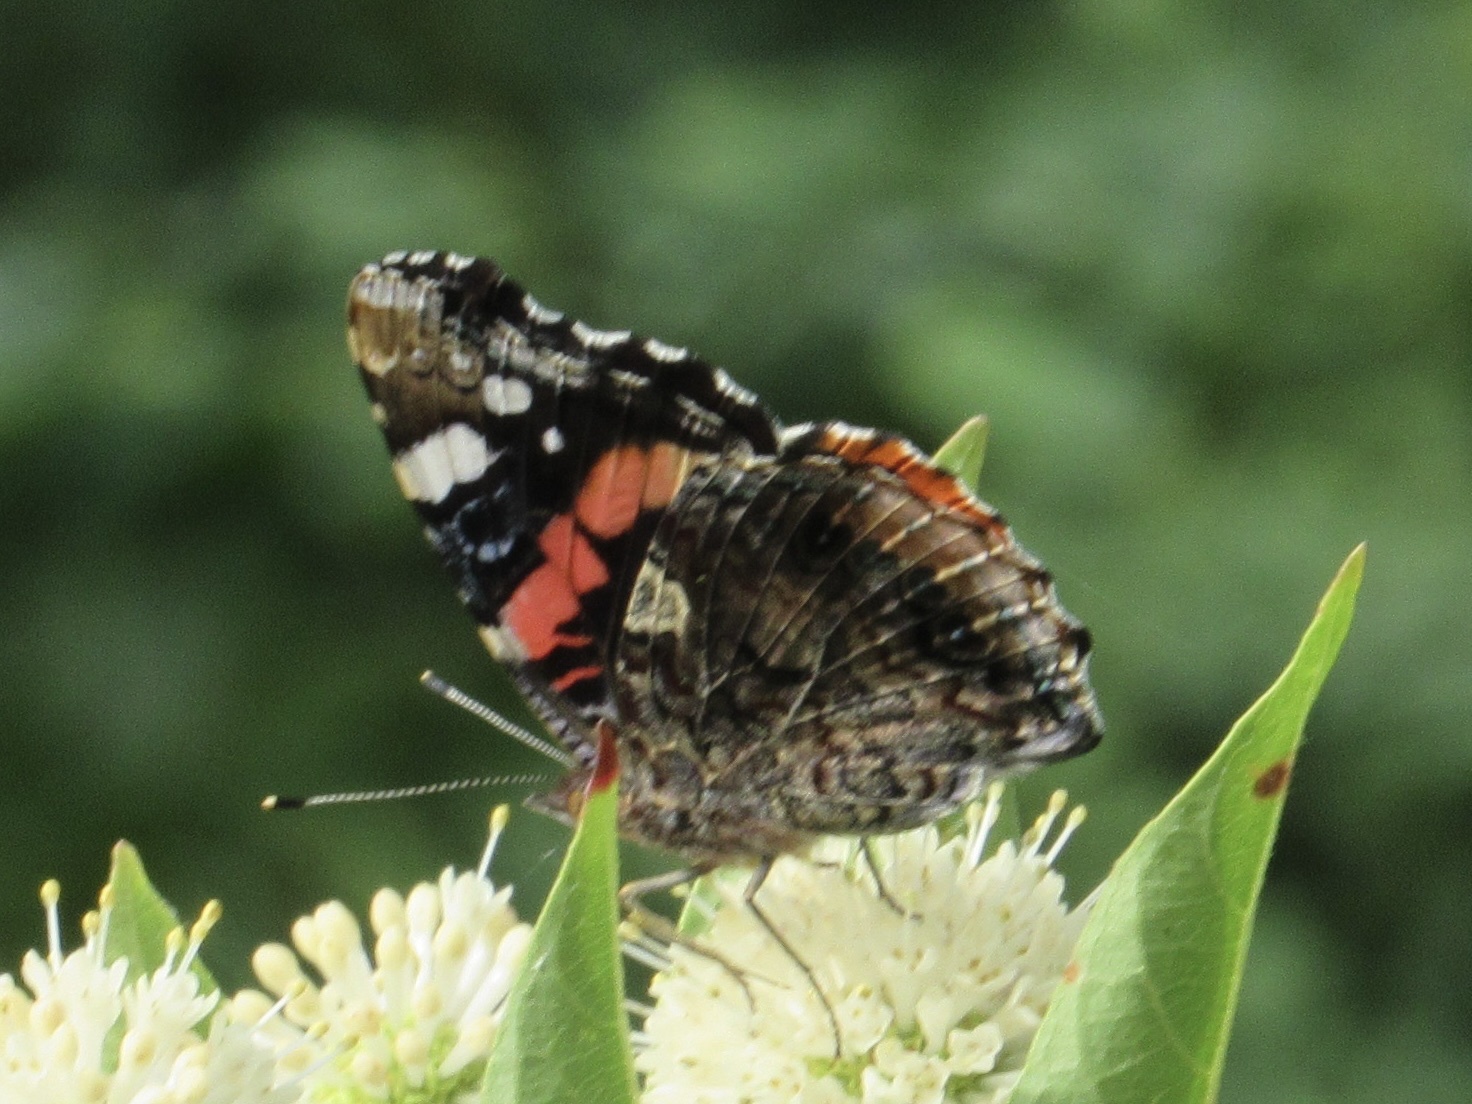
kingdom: Animalia
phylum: Arthropoda
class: Insecta
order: Lepidoptera
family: Nymphalidae
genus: Vanessa
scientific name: Vanessa atalanta
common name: Red admiral
